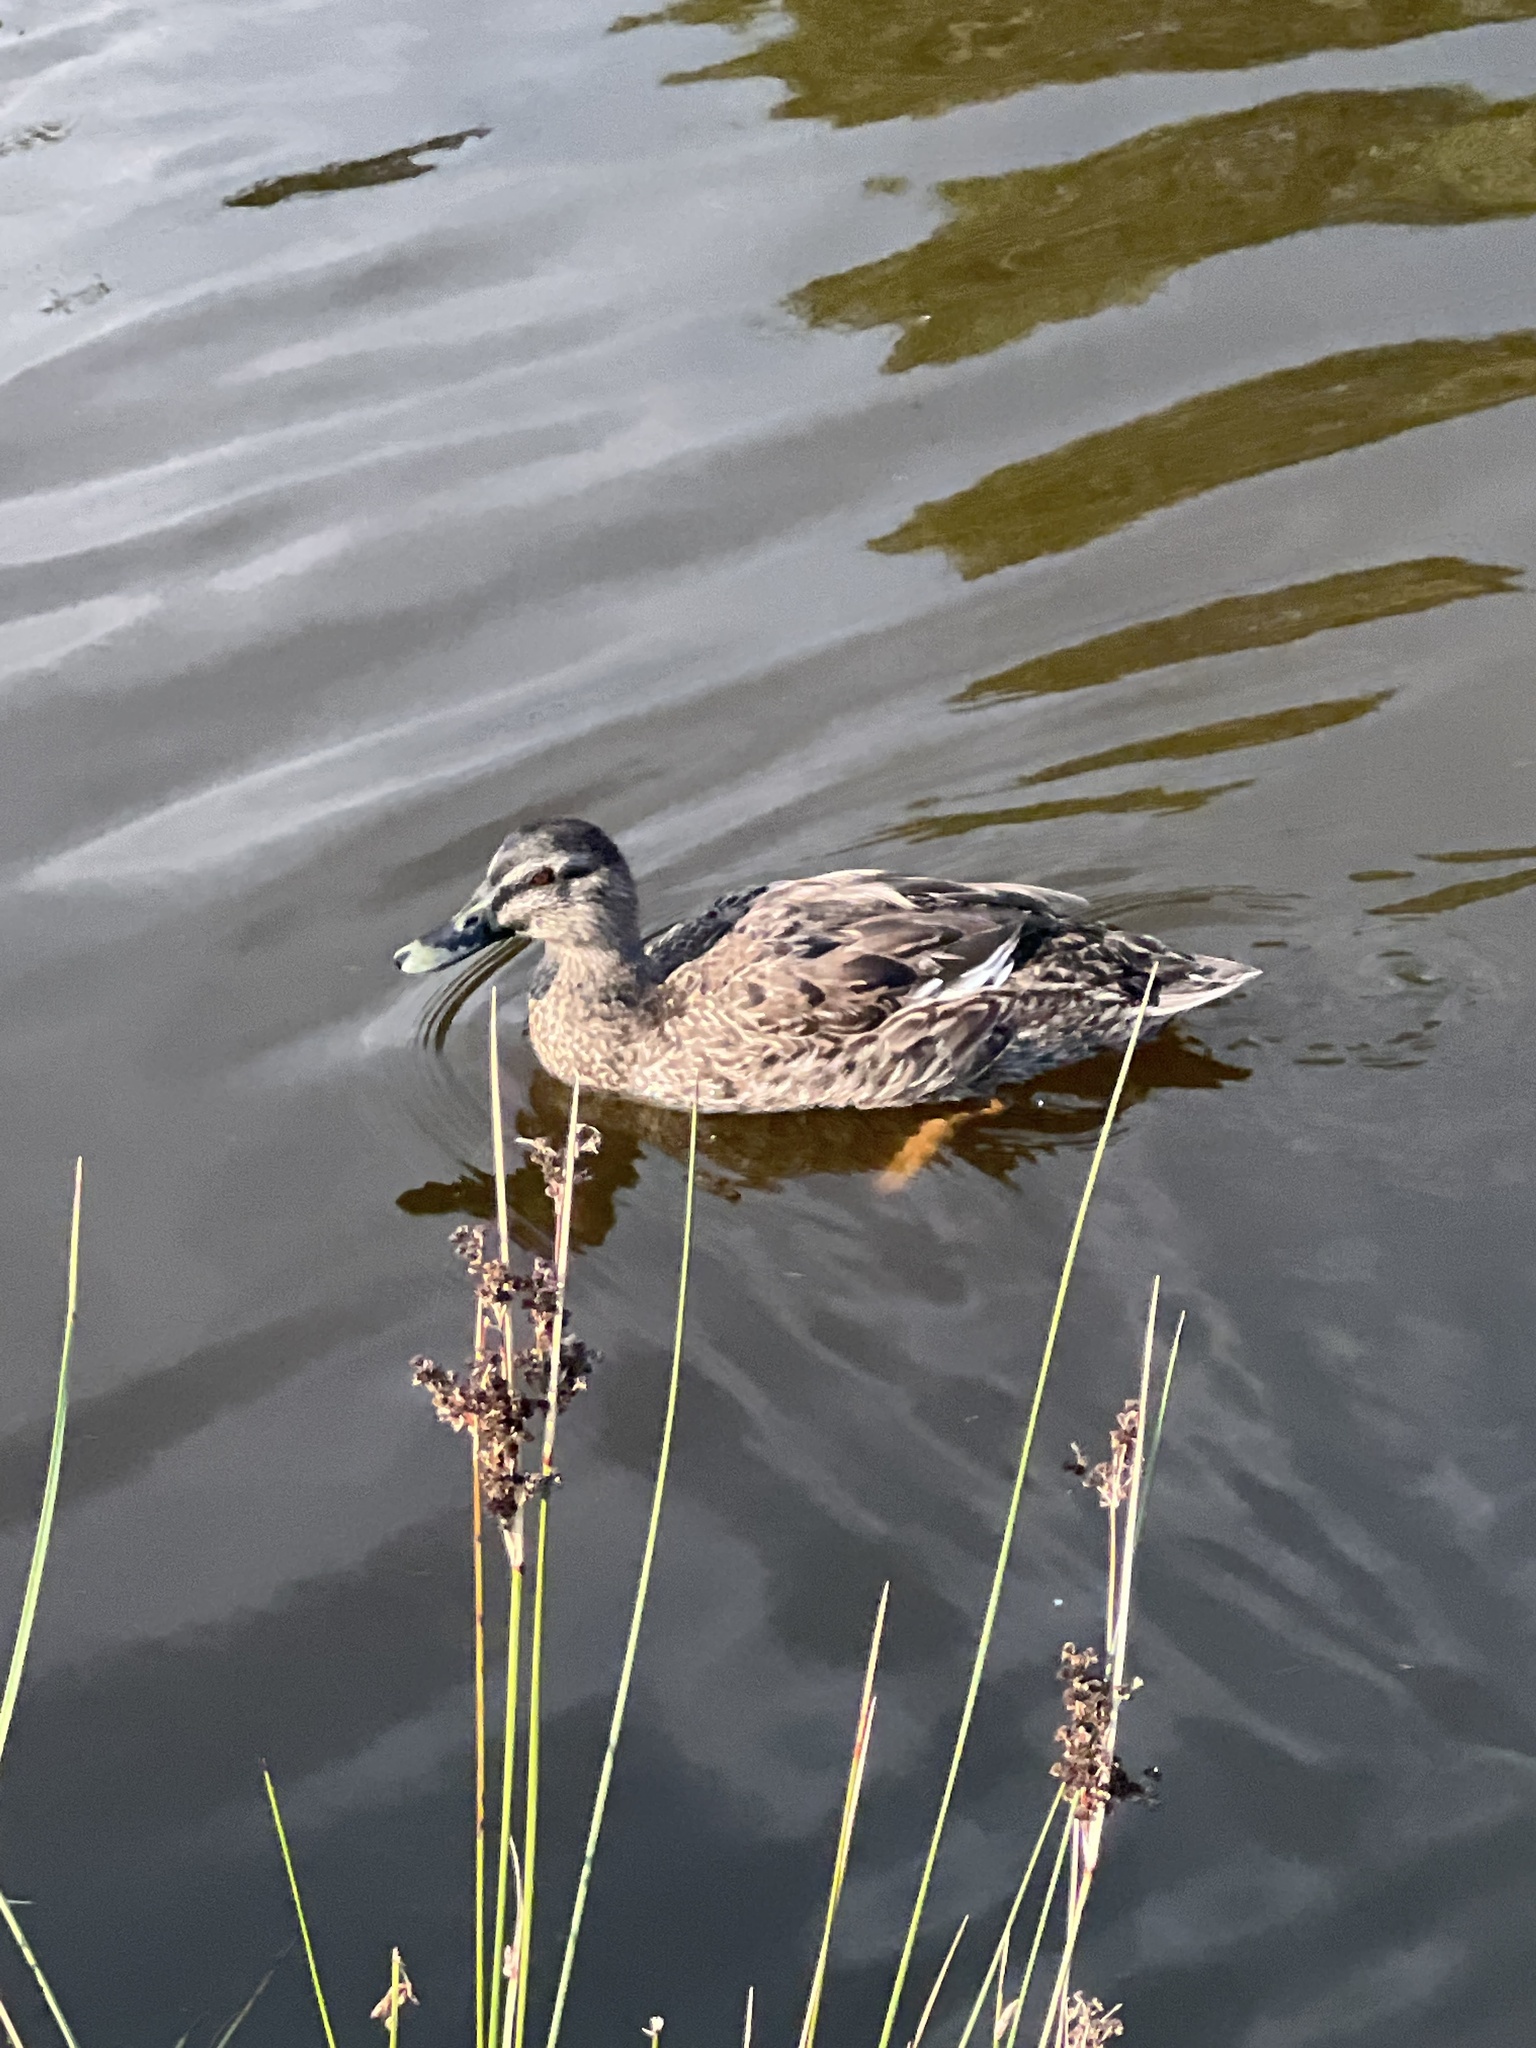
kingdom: Animalia
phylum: Chordata
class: Aves
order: Anseriformes
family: Anatidae
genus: Anas
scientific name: Anas
